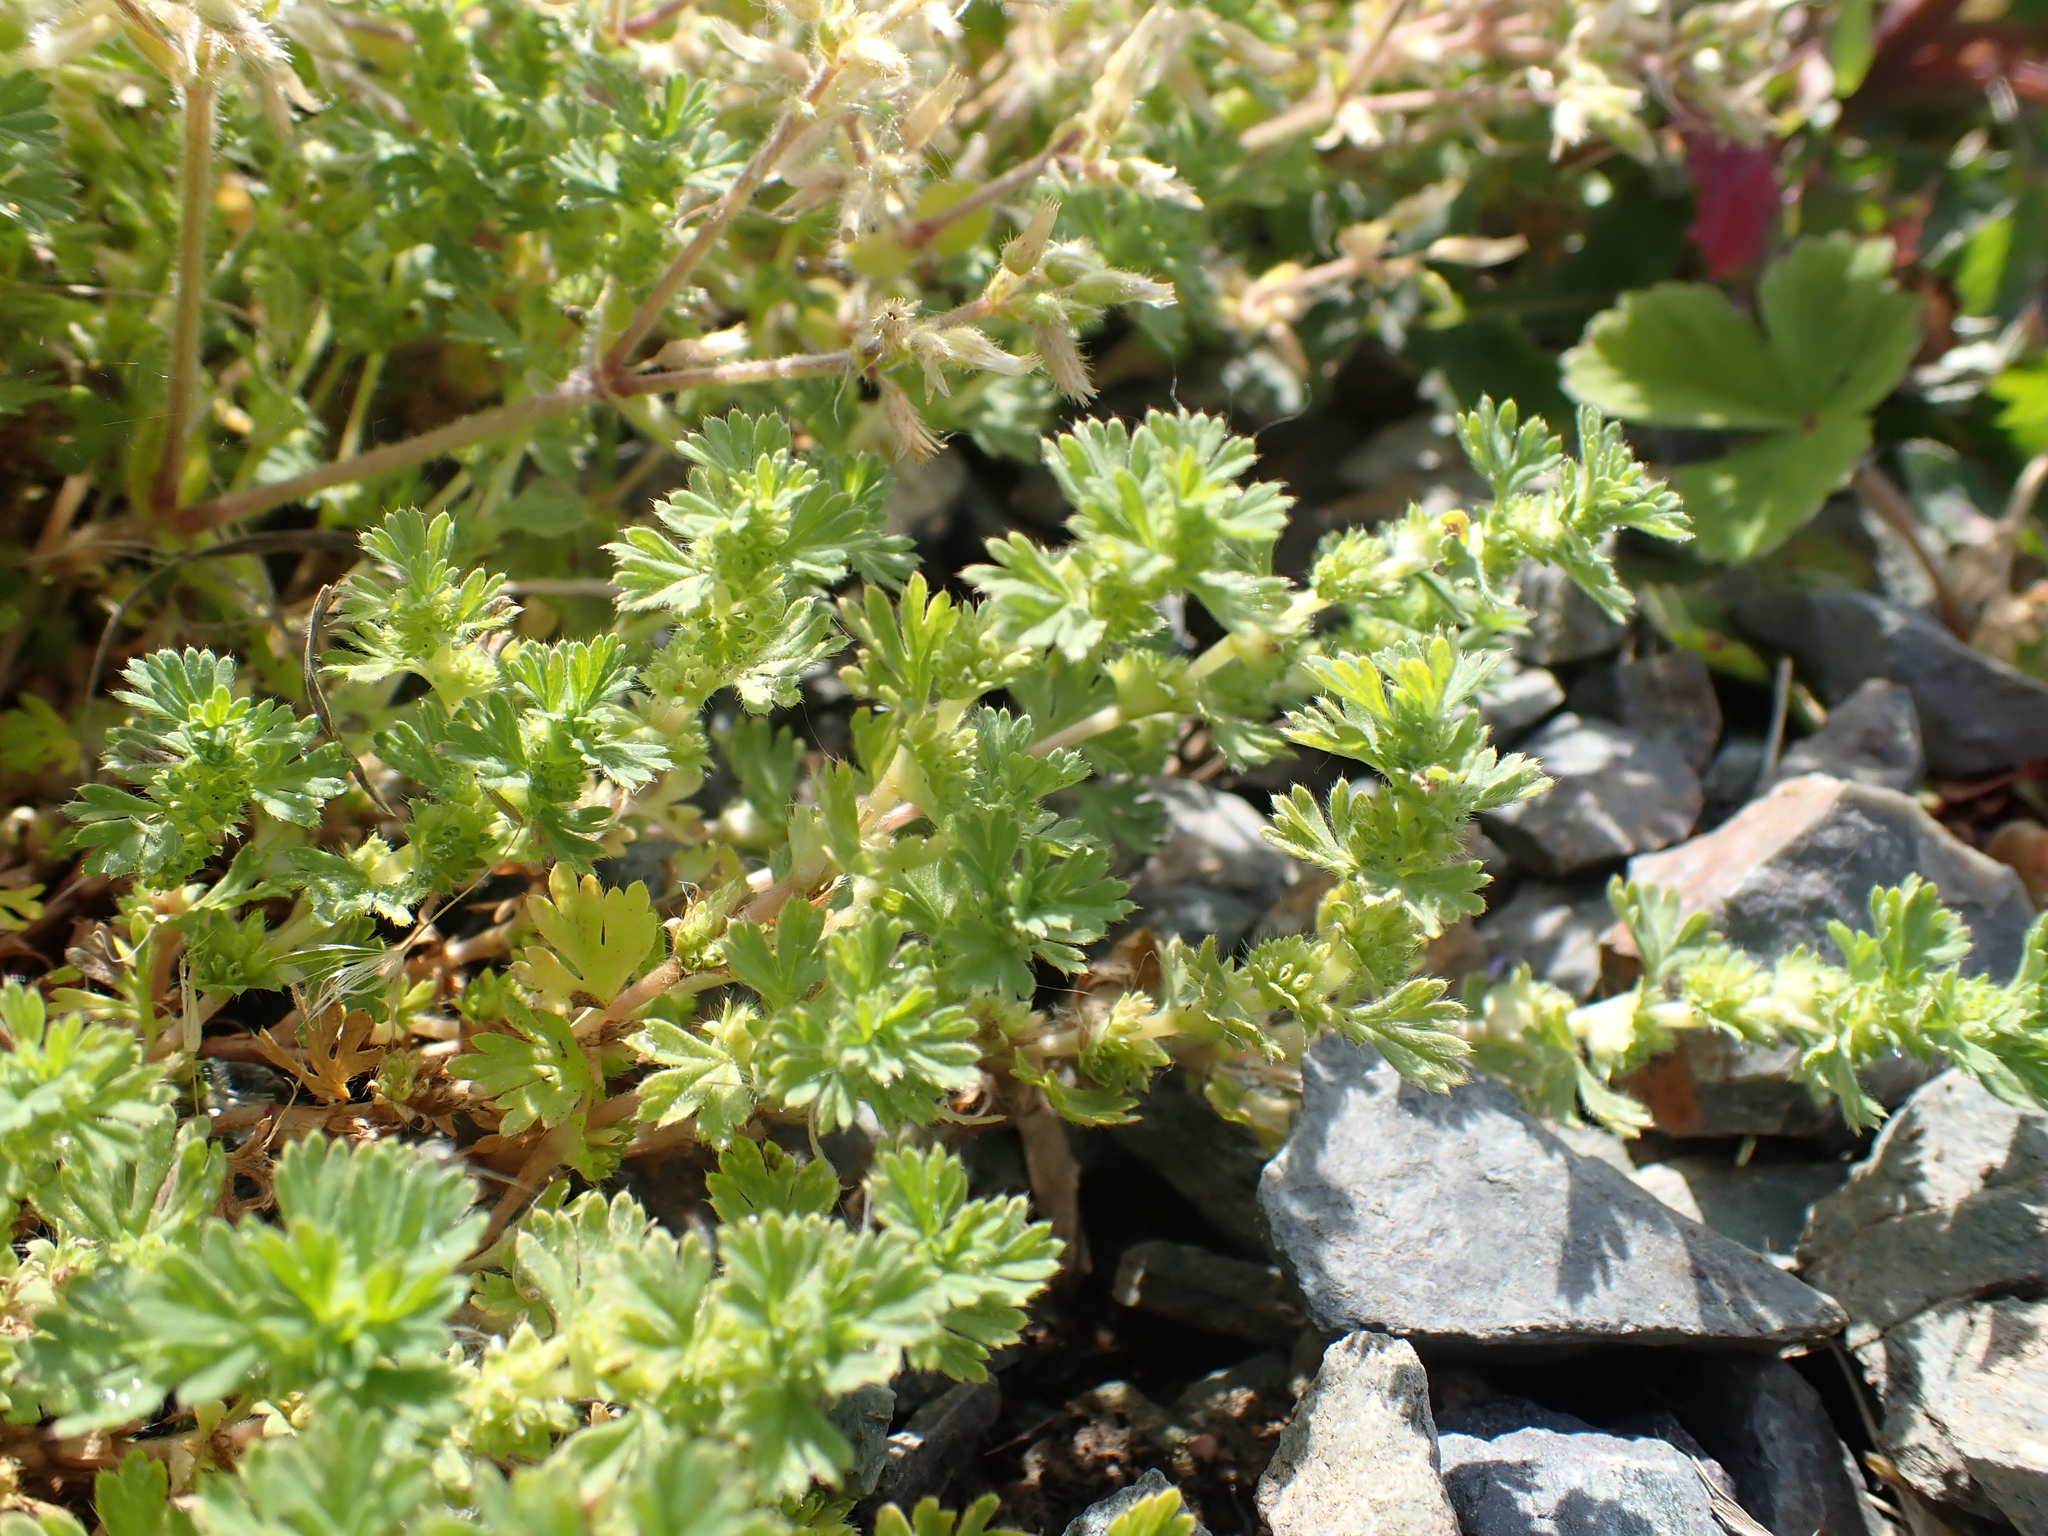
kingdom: Plantae
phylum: Tracheophyta
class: Magnoliopsida
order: Rosales
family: Rosaceae
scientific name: Rosaceae
